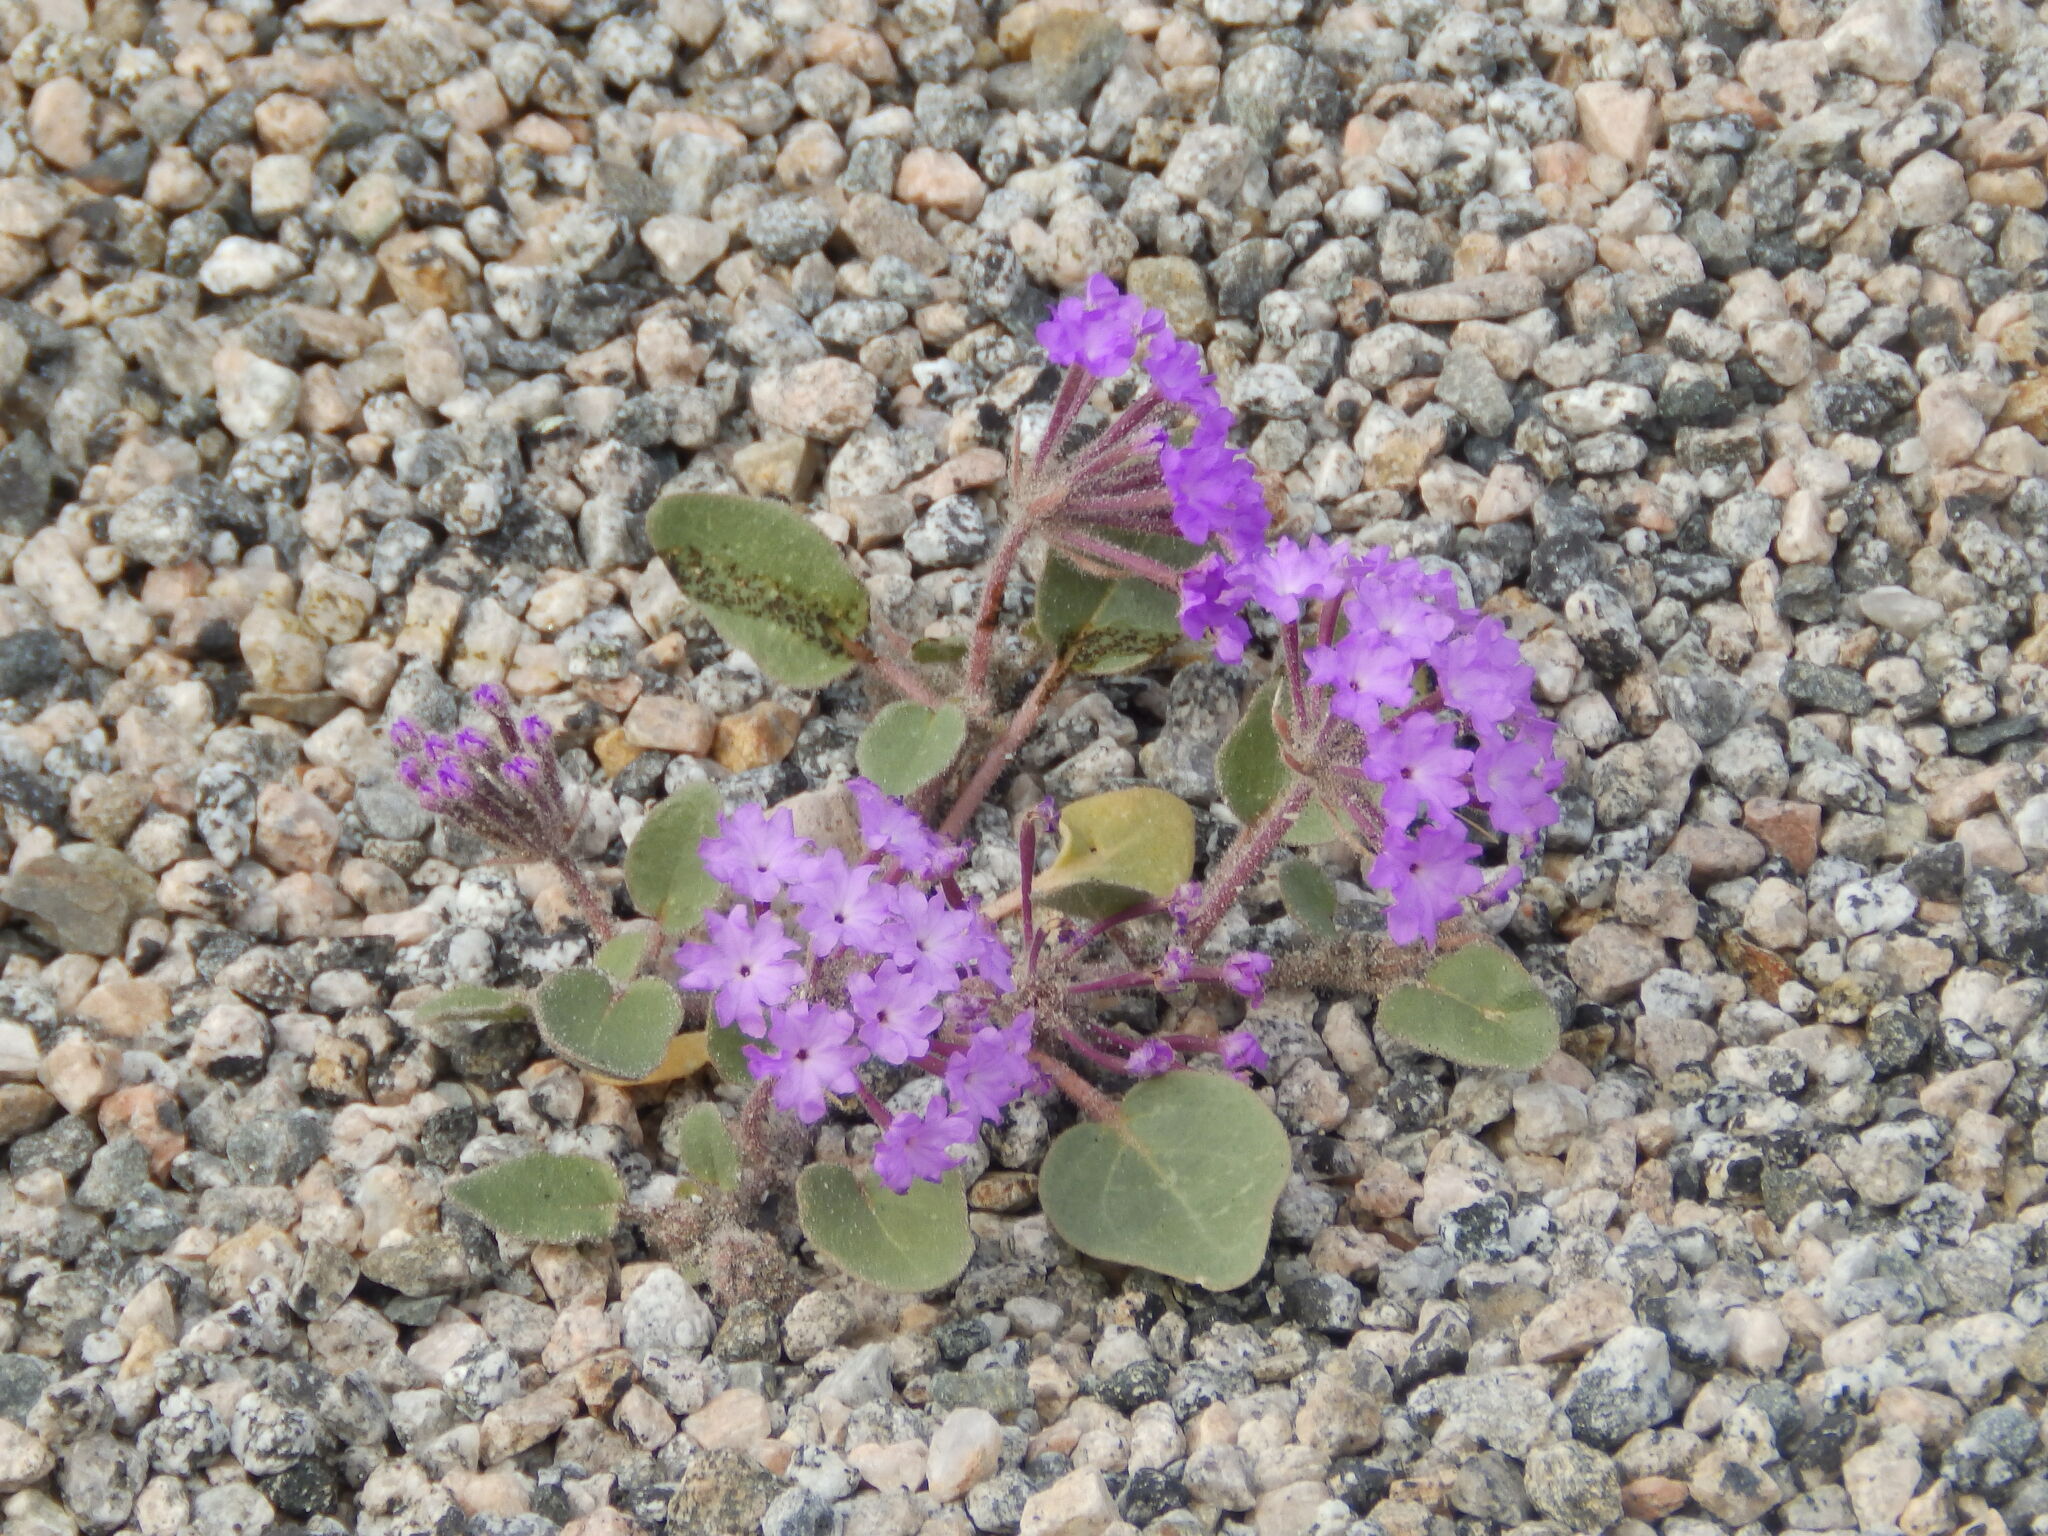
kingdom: Plantae
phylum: Tracheophyta
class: Magnoliopsida
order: Caryophyllales
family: Nyctaginaceae
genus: Abronia
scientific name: Abronia villosa
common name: Desert sand-verbena
